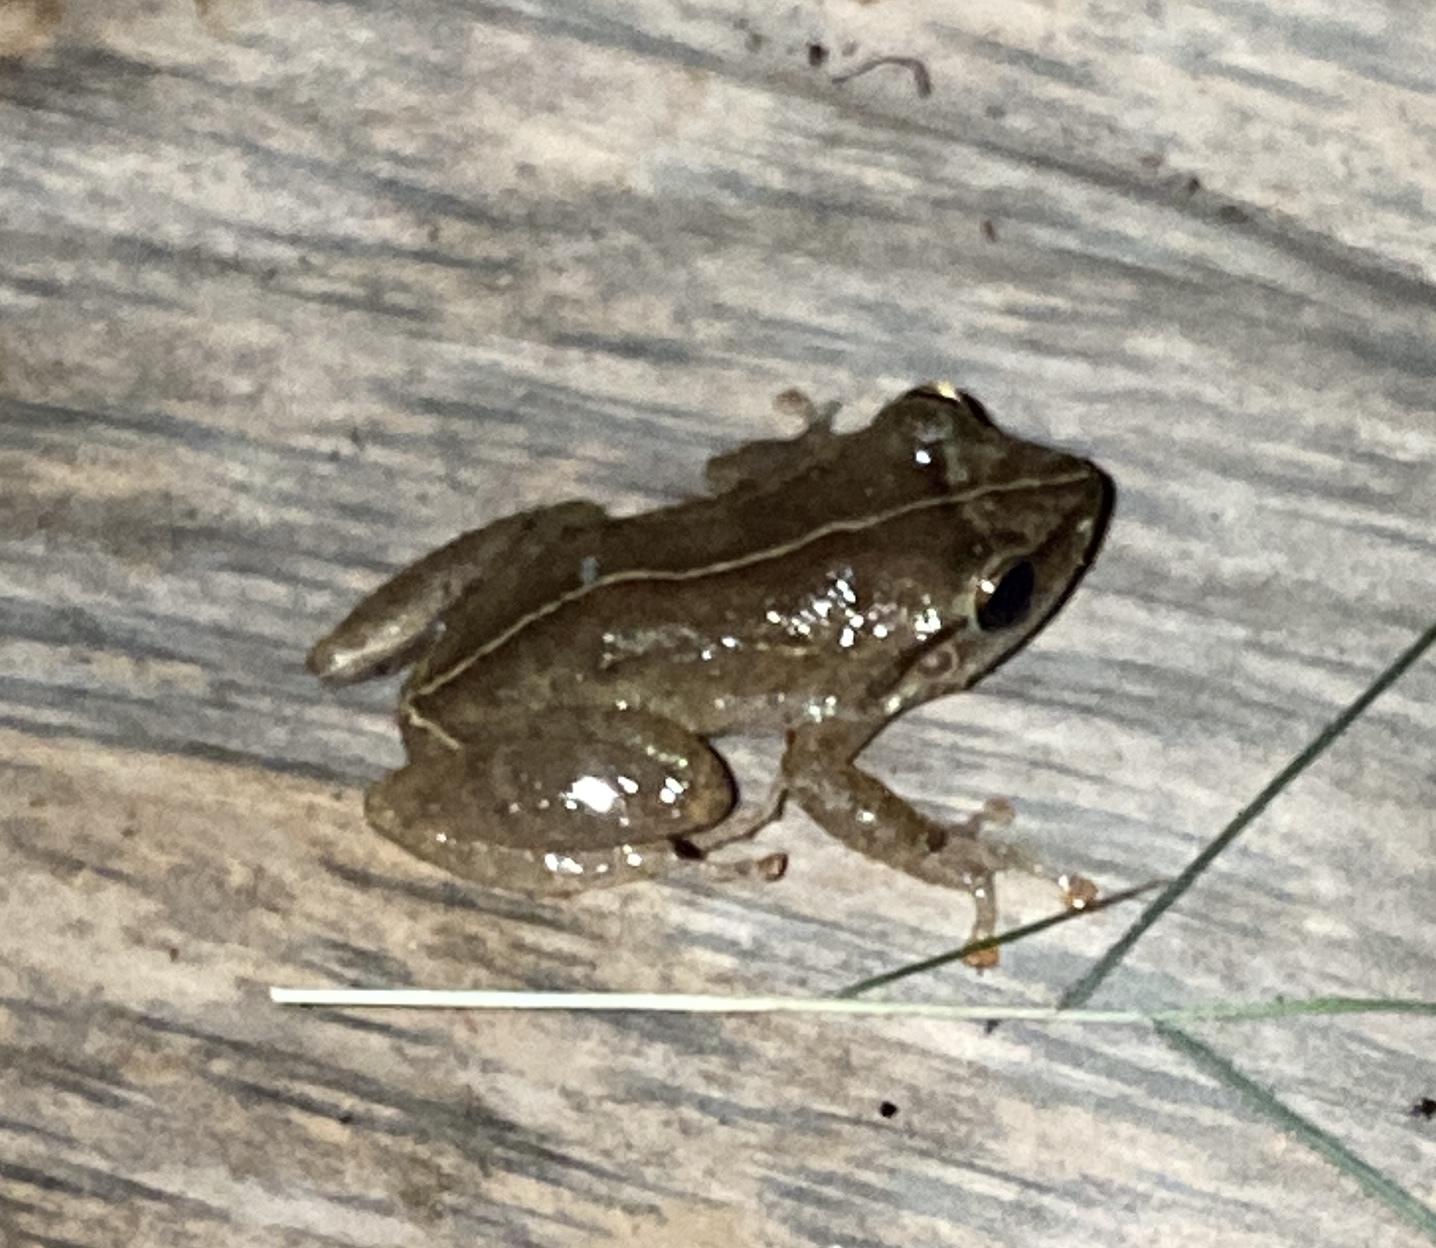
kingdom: Animalia
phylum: Chordata
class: Amphibia
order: Anura
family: Eleutherodactylidae
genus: Eleutherodactylus
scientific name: Eleutherodactylus coqui
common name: Coqui frog
